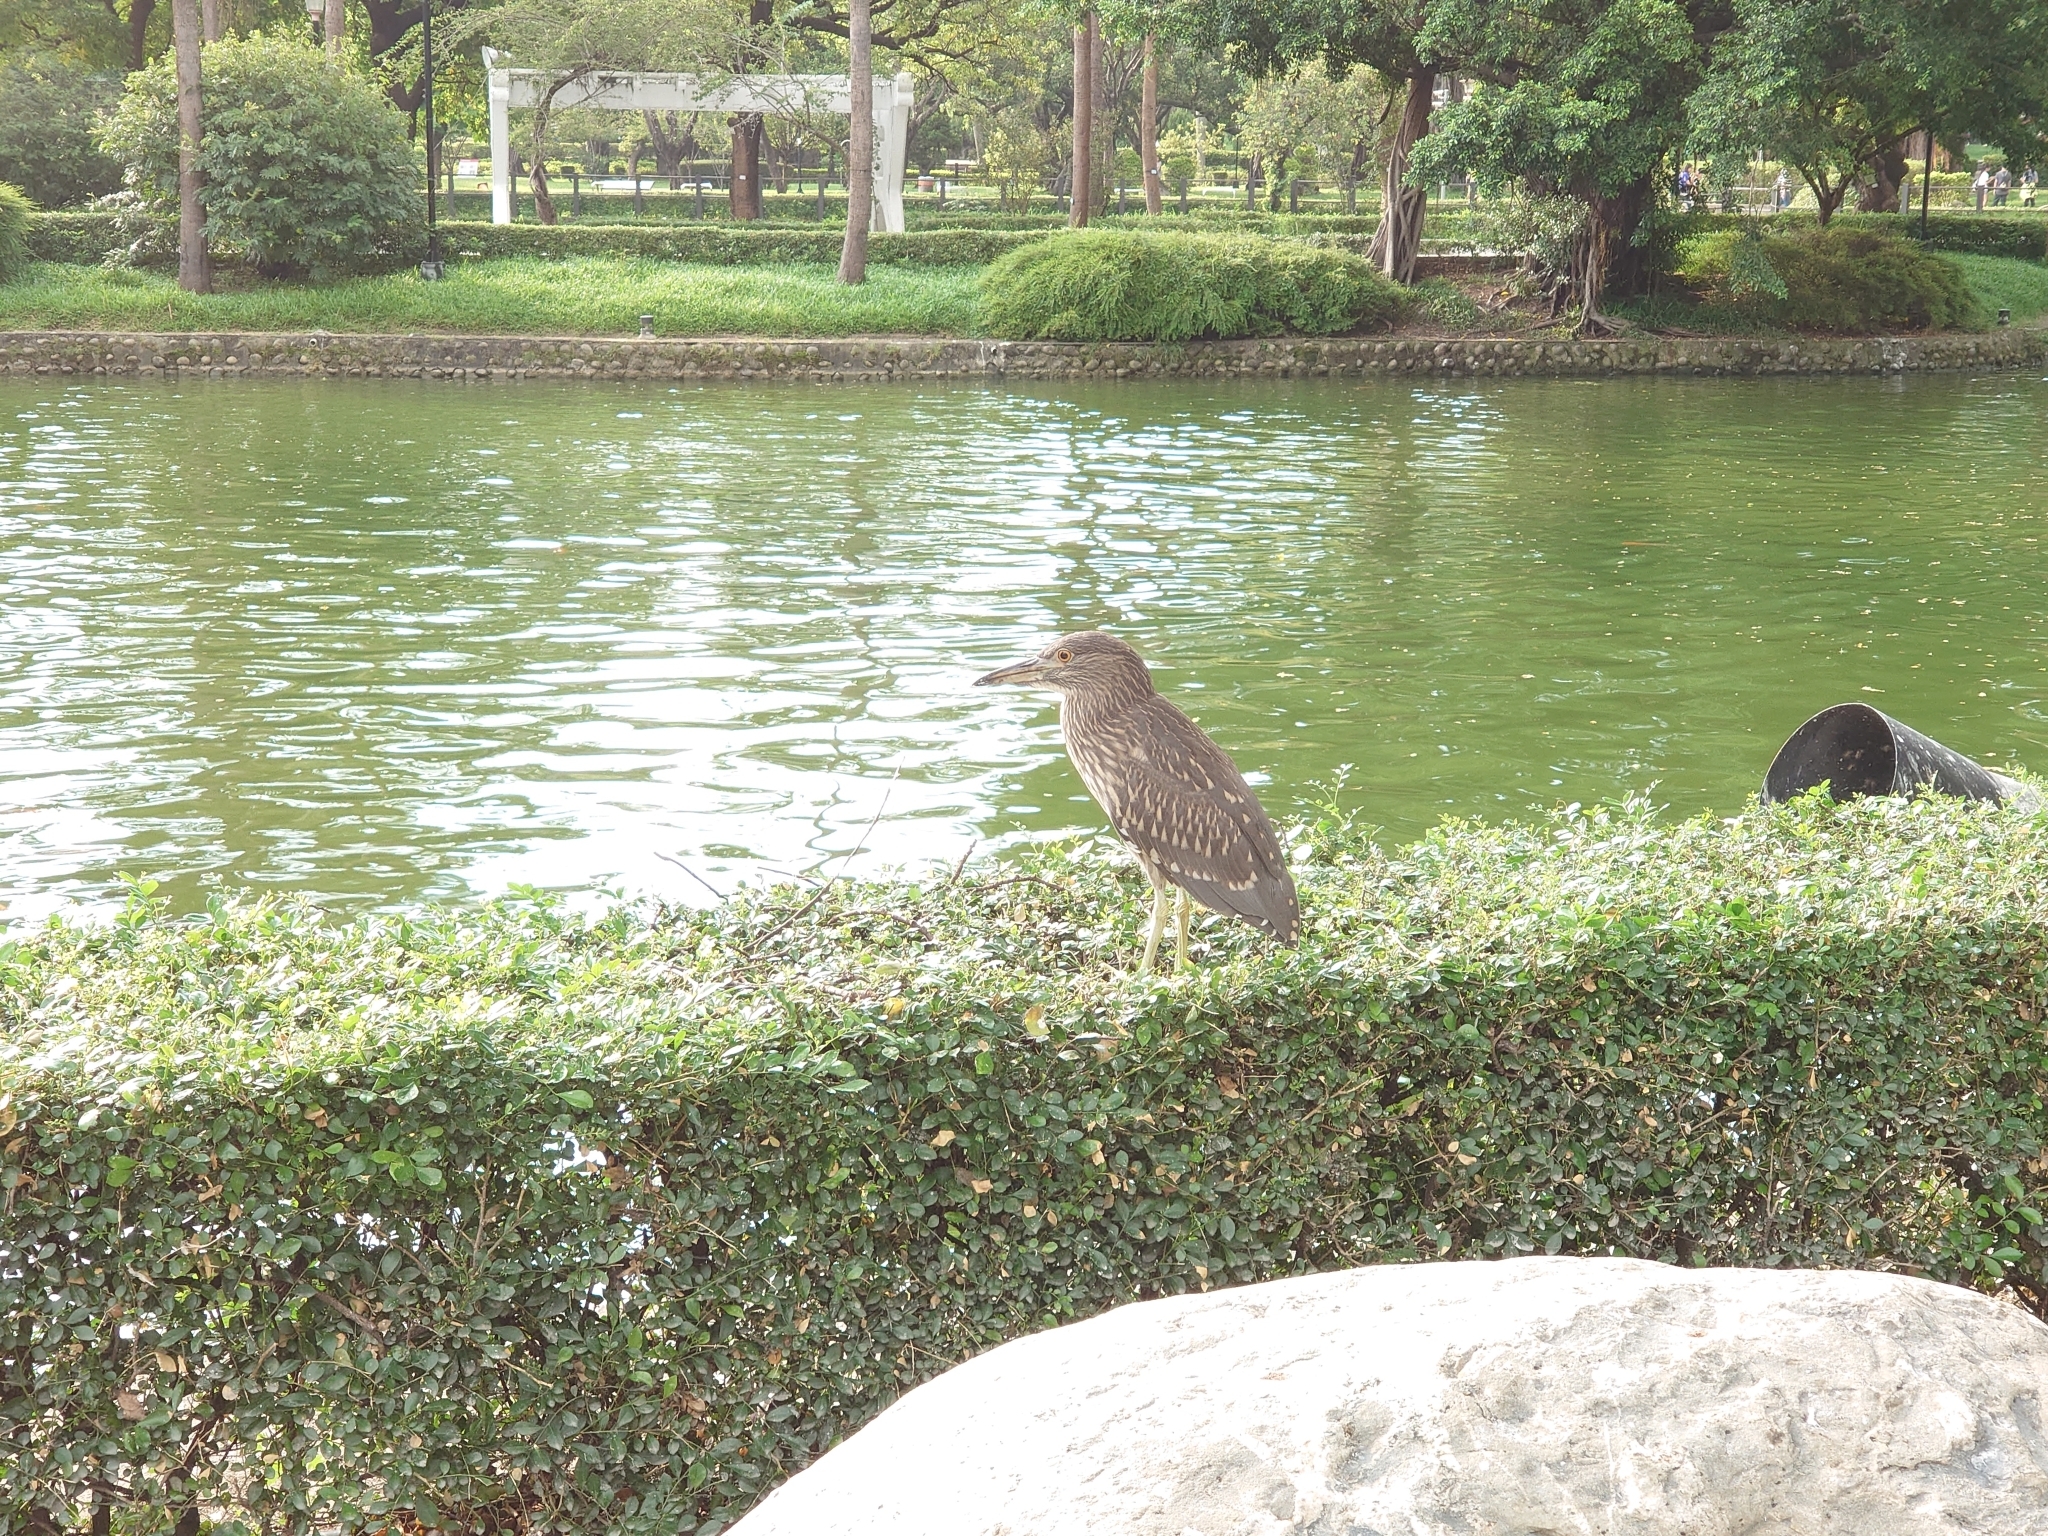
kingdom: Animalia
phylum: Chordata
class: Aves
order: Pelecaniformes
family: Ardeidae
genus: Nycticorax
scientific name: Nycticorax nycticorax
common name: Black-crowned night heron
